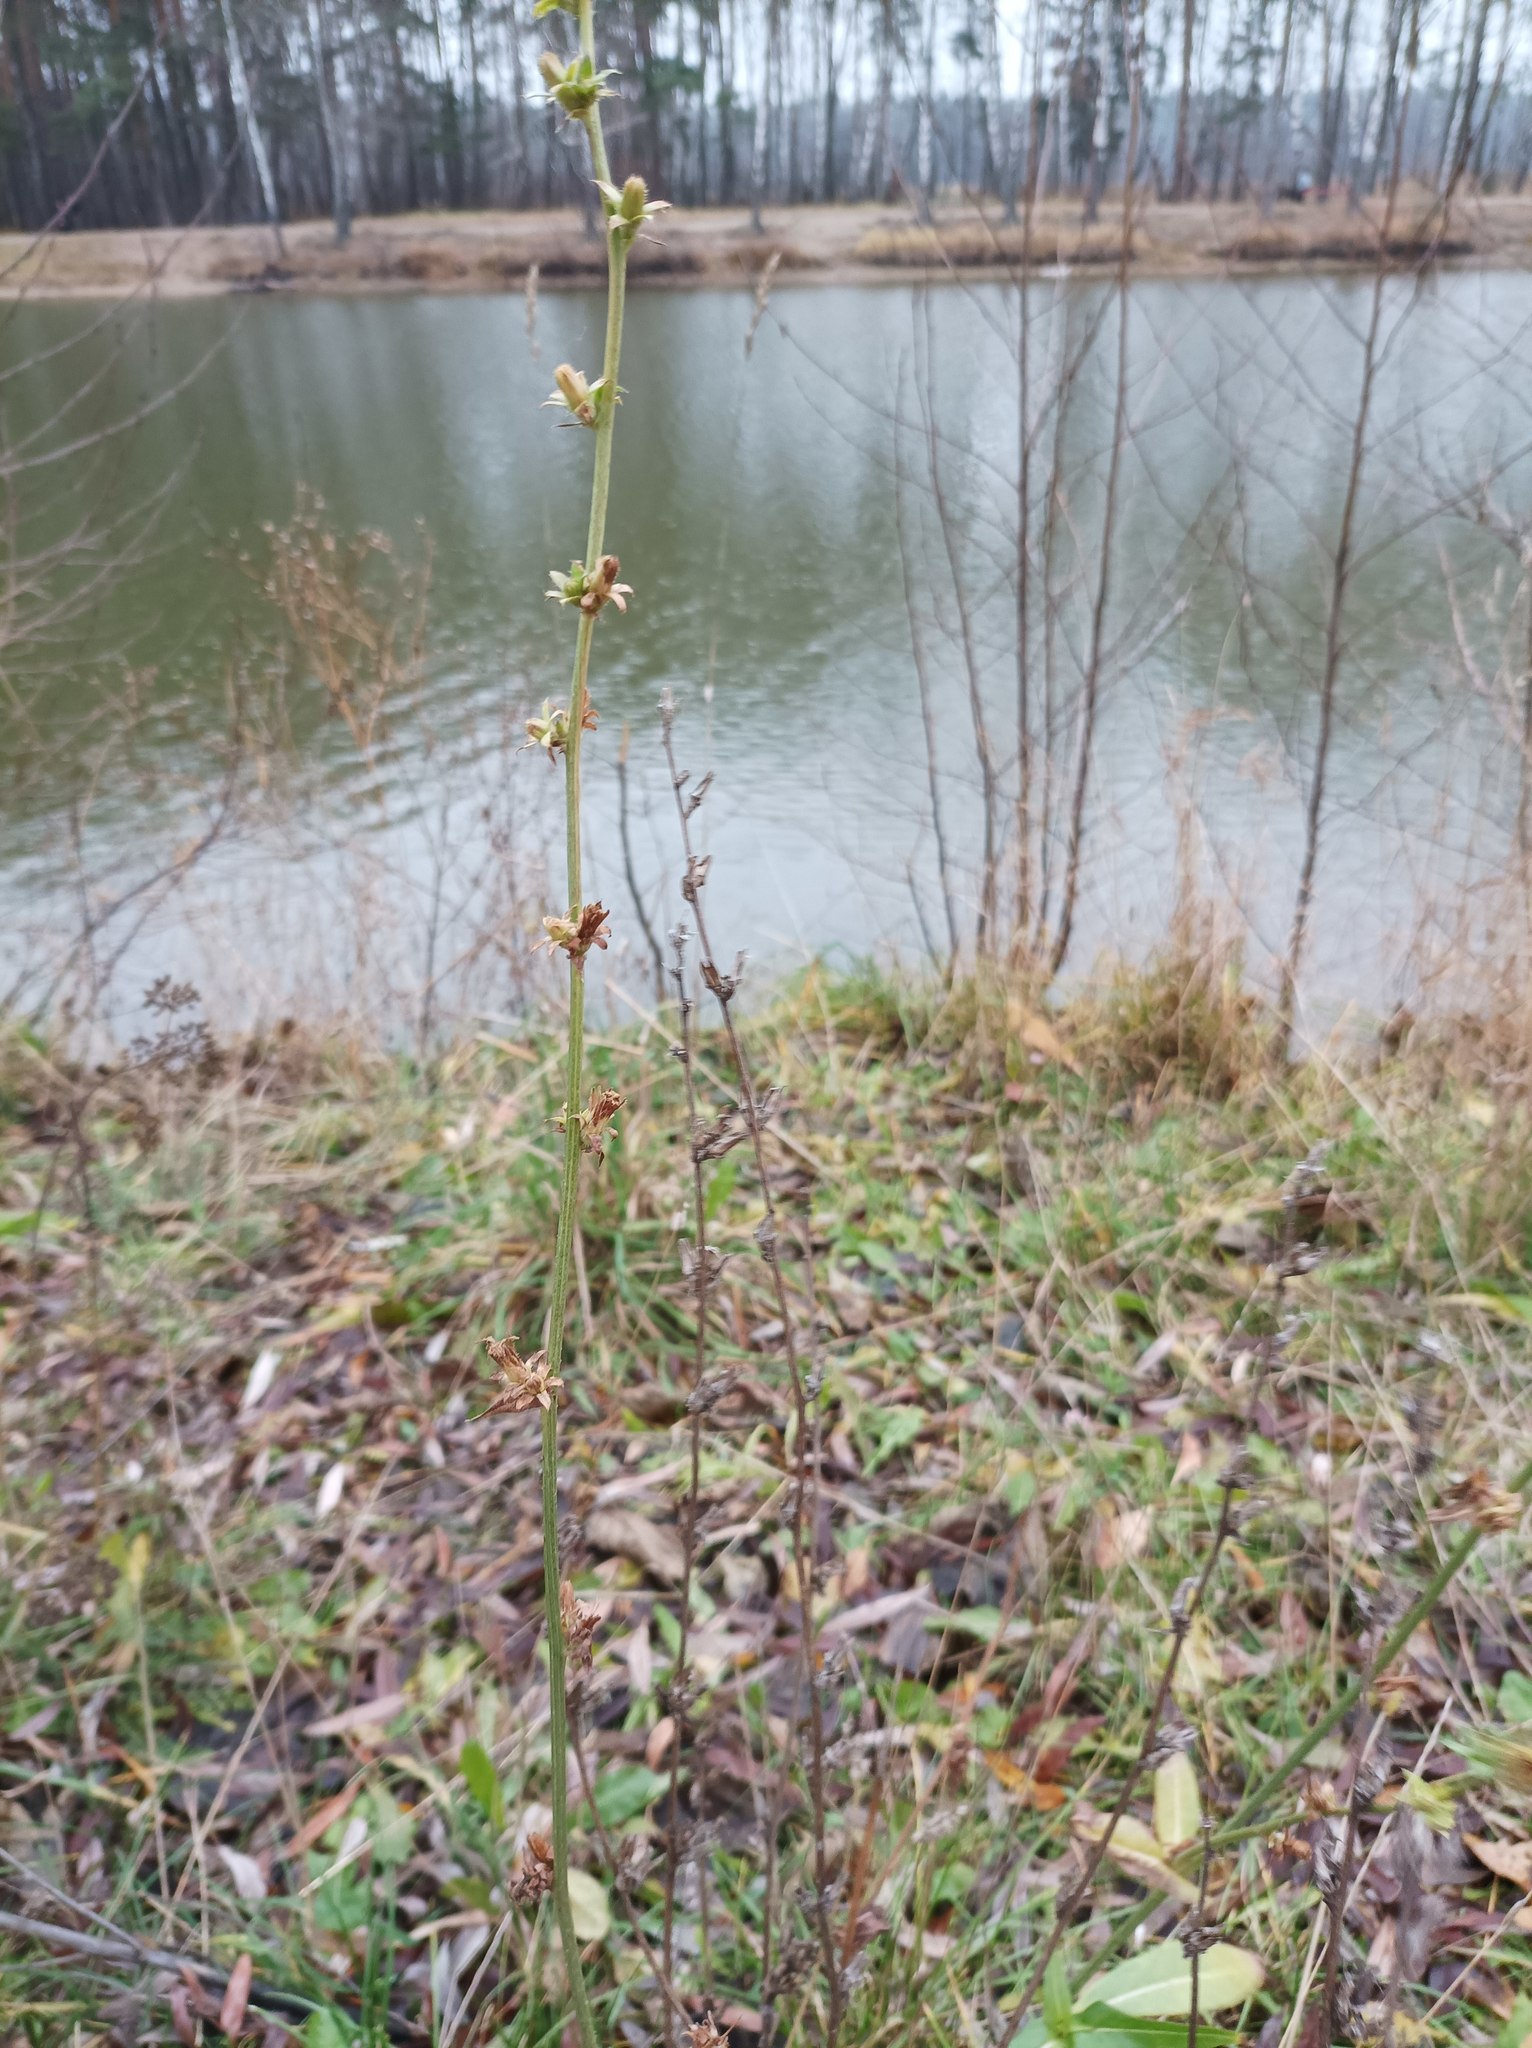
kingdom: Plantae
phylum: Tracheophyta
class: Magnoliopsida
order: Asterales
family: Asteraceae
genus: Cichorium
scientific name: Cichorium intybus
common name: Chicory
